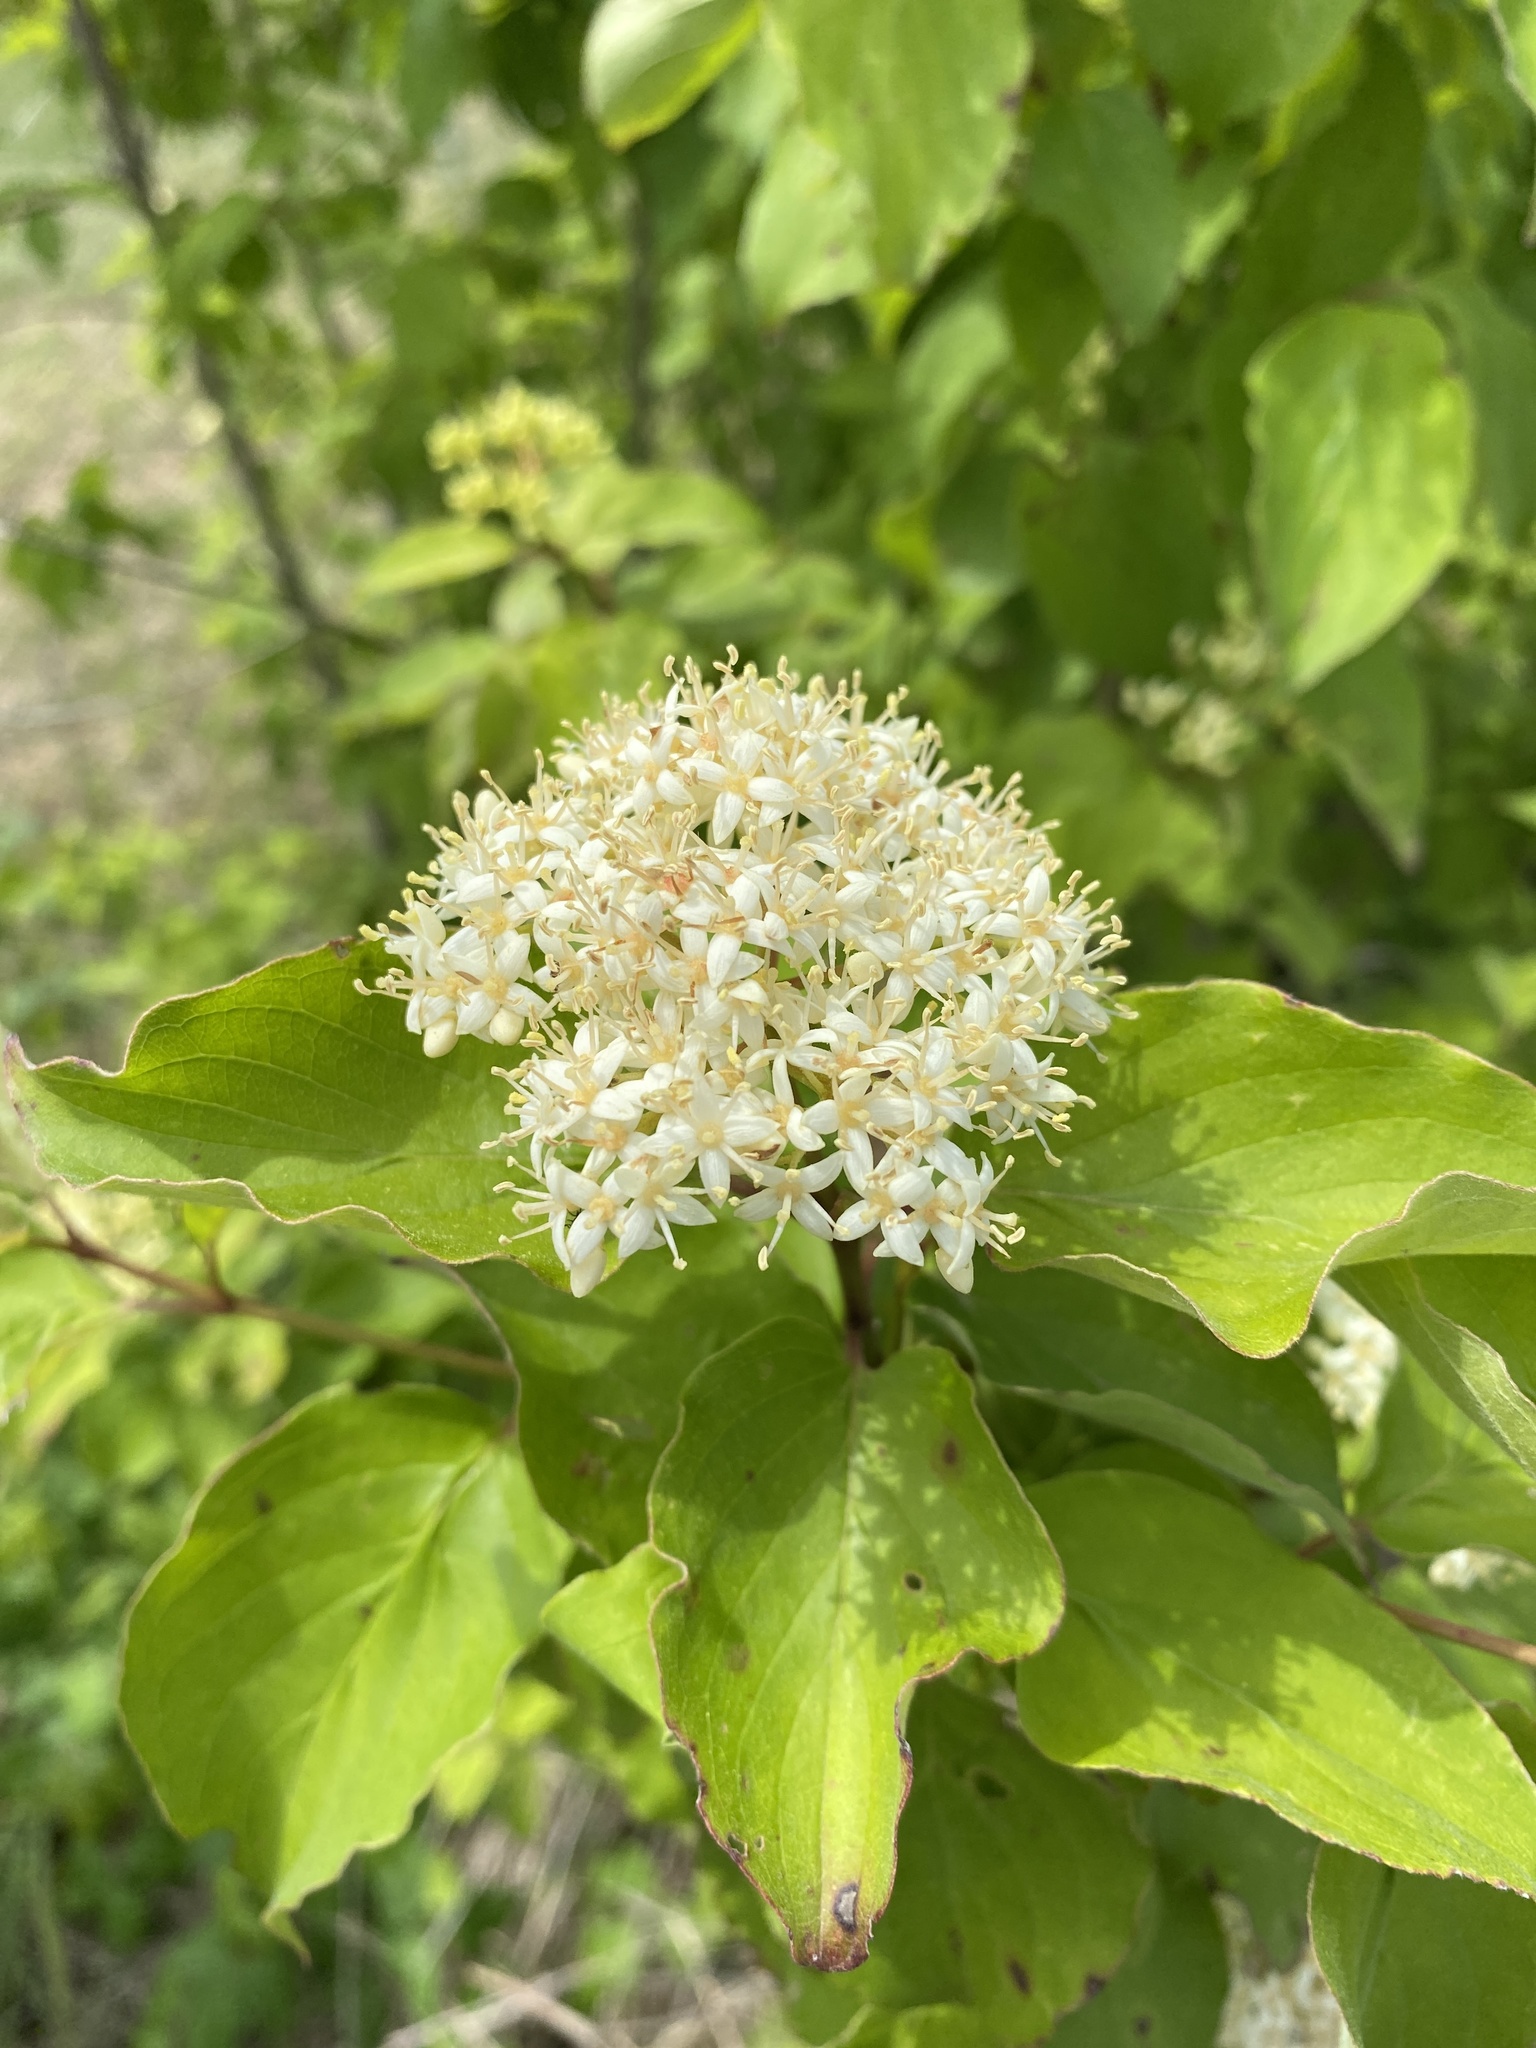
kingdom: Plantae
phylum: Tracheophyta
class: Magnoliopsida
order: Cornales
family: Cornaceae
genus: Cornus
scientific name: Cornus drummondii
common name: Rough-leaf dogwood
